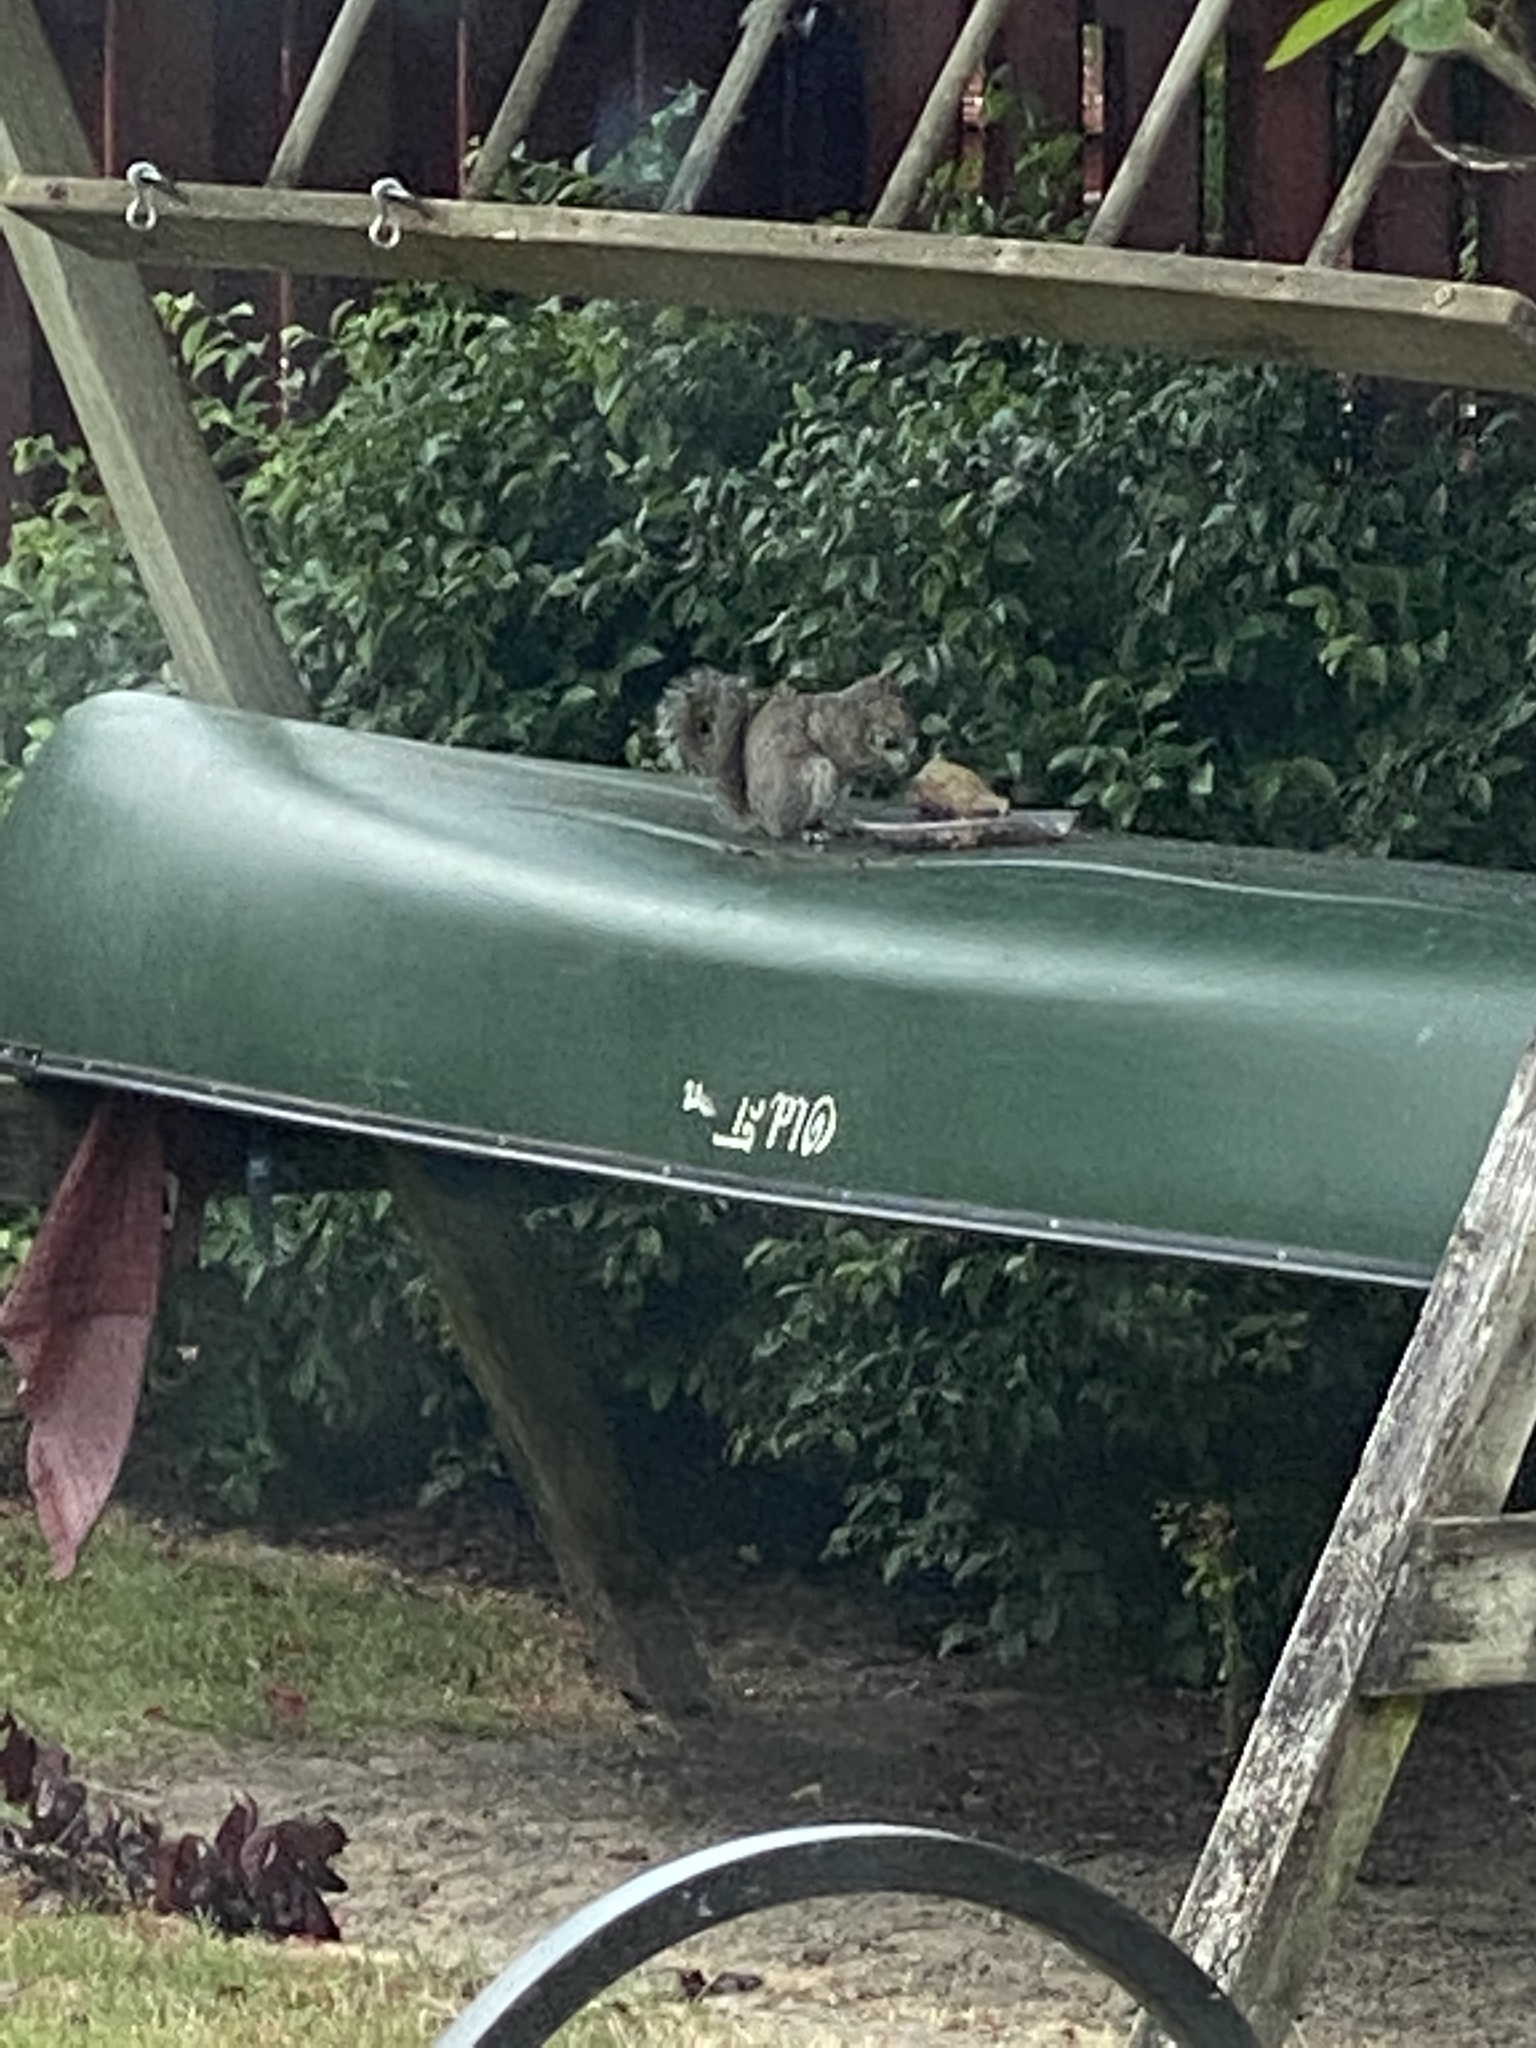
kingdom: Animalia
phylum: Chordata
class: Mammalia
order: Rodentia
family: Sciuridae
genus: Sciurus
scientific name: Sciurus carolinensis
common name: Eastern gray squirrel
